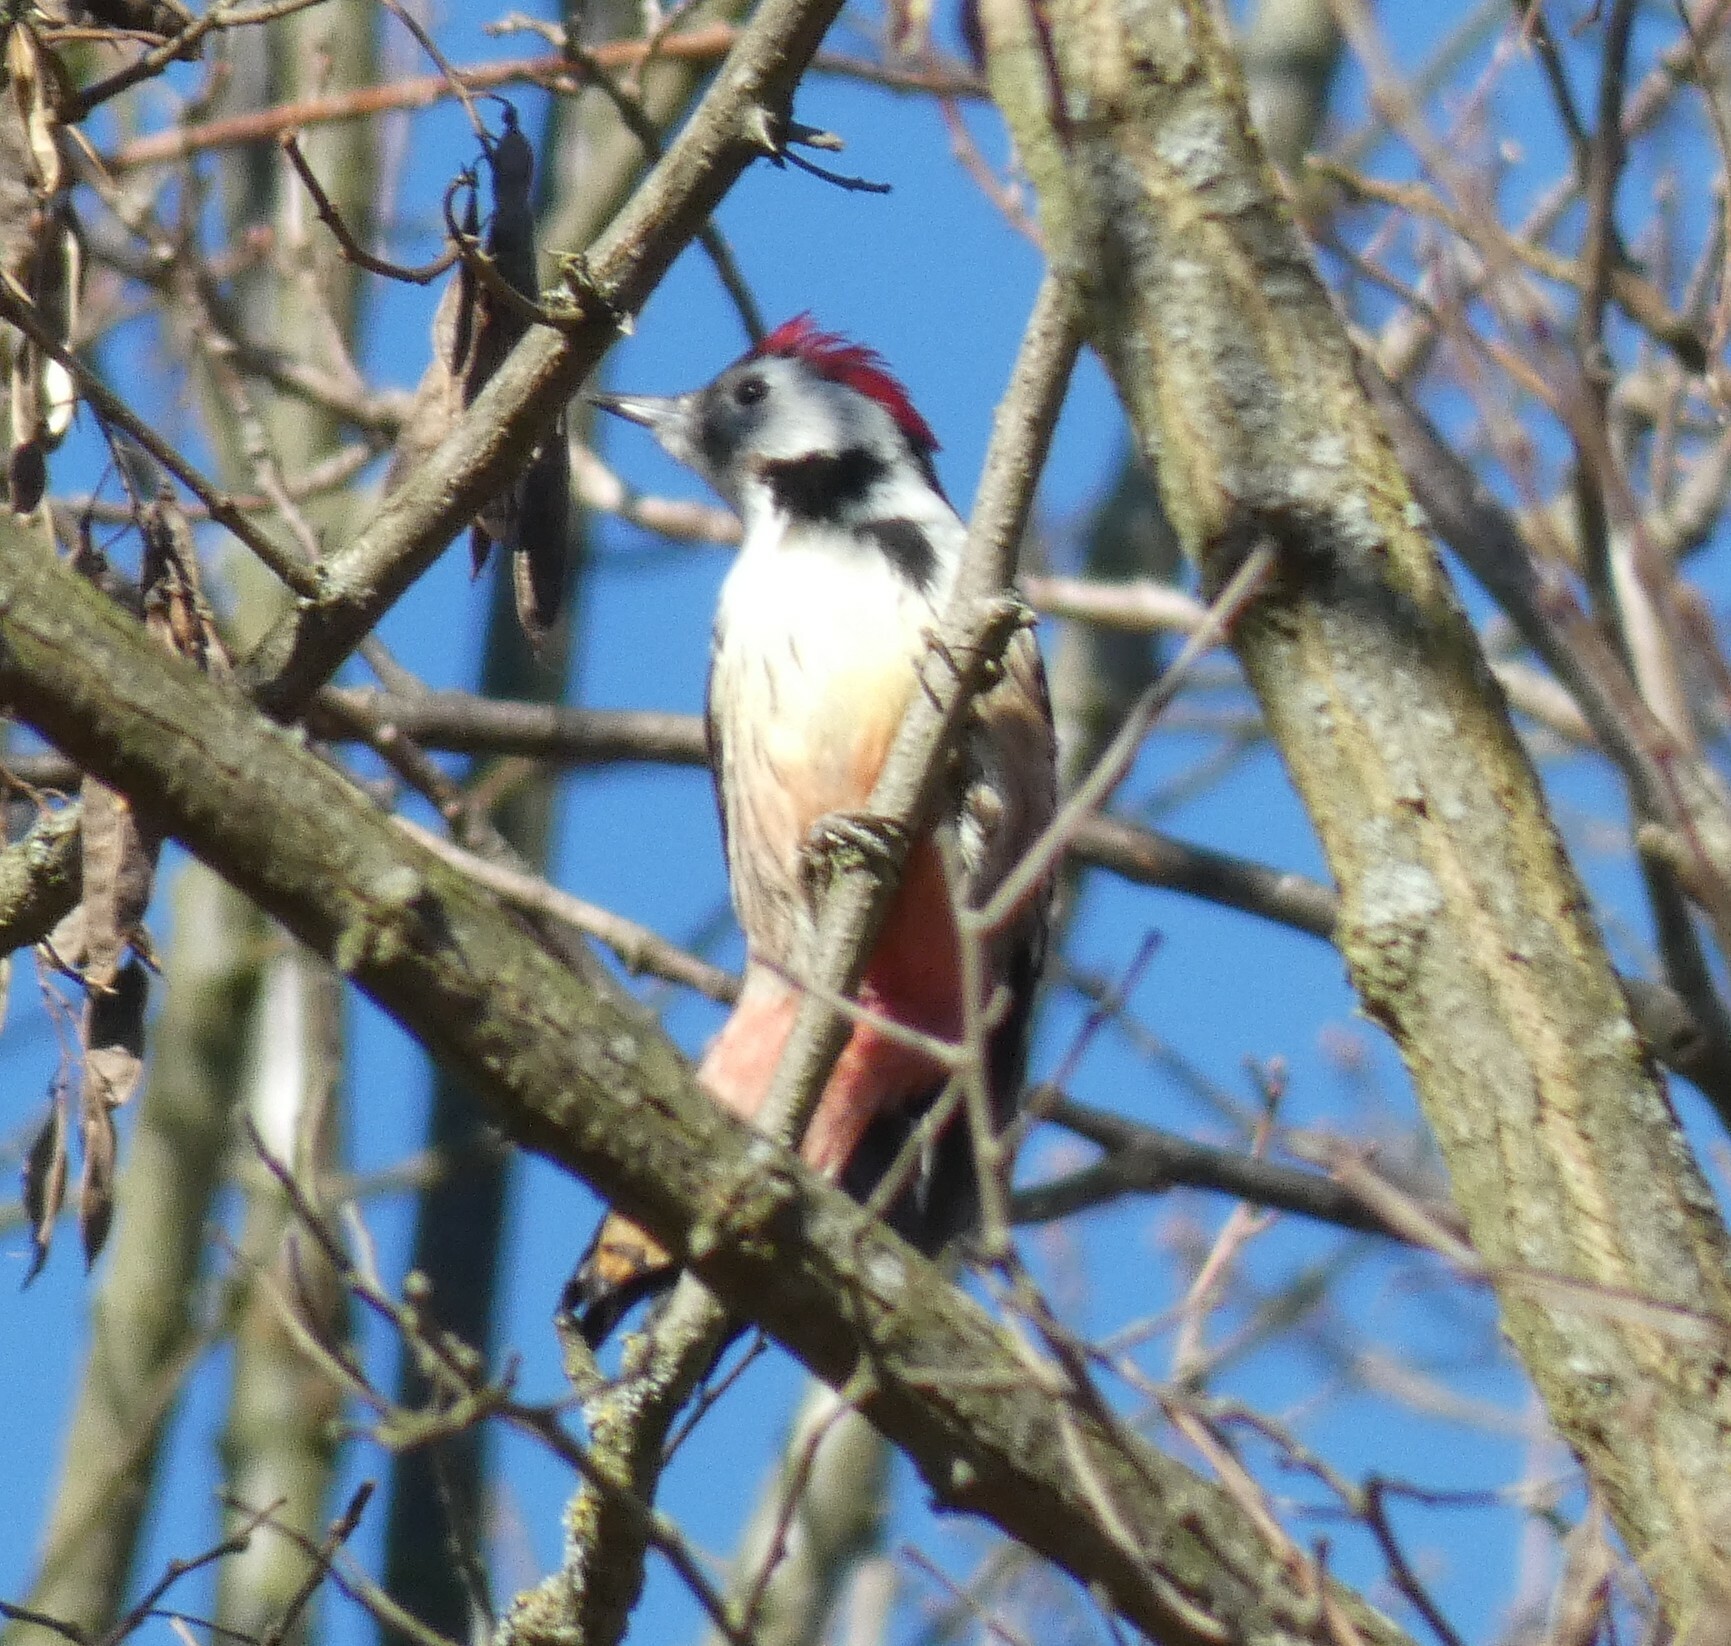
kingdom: Animalia
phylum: Chordata
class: Aves
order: Piciformes
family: Picidae
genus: Dendrocoptes
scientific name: Dendrocoptes medius
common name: Middle spotted woodpecker
